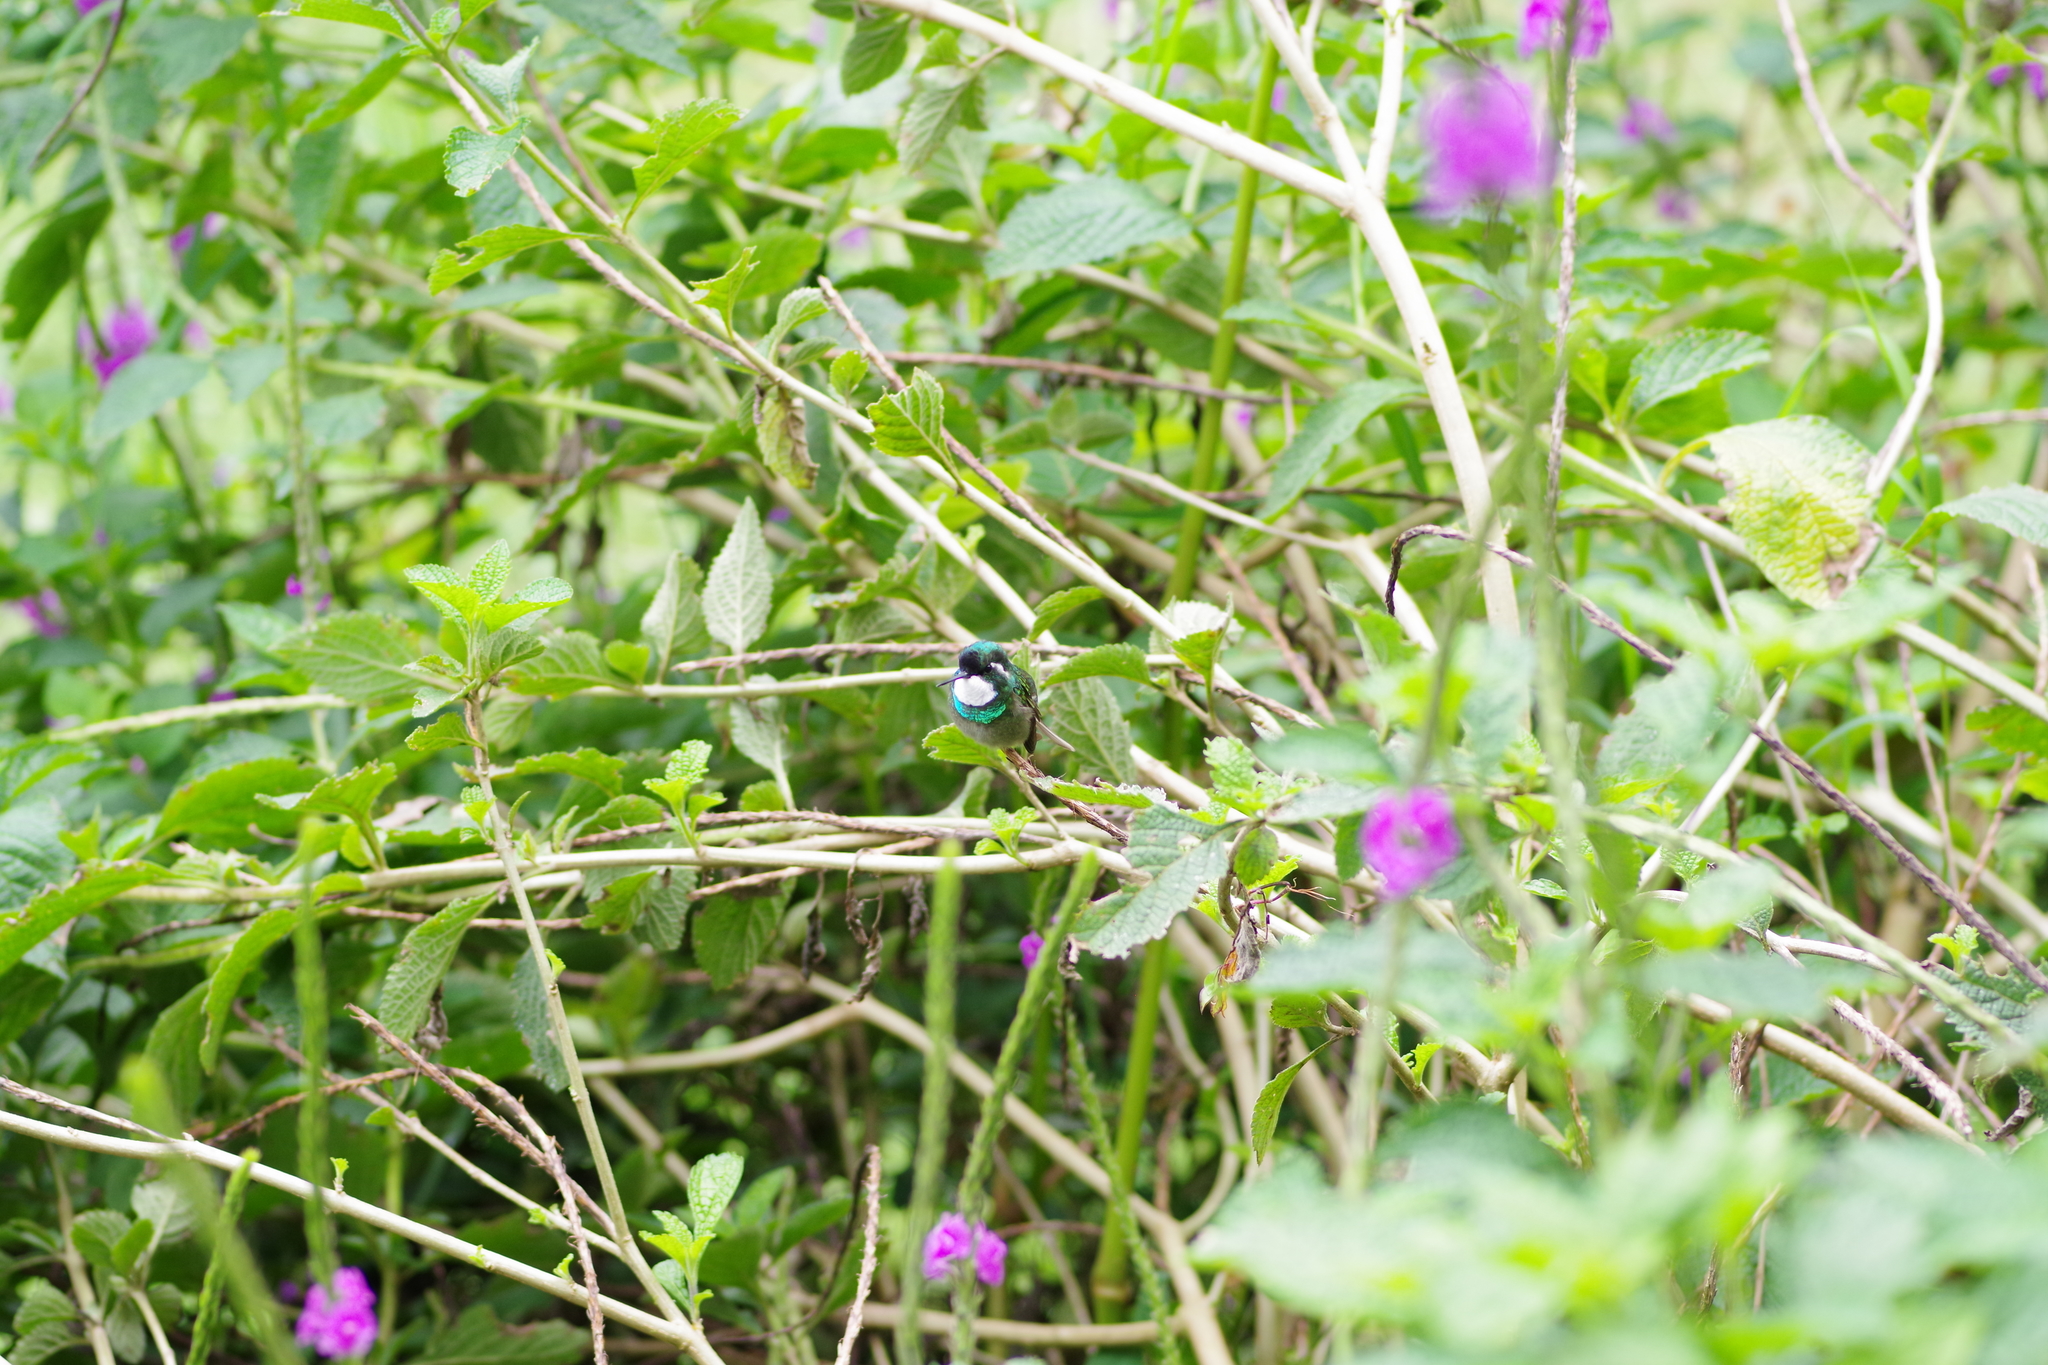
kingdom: Animalia
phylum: Chordata
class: Aves
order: Apodiformes
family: Trochilidae
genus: Lampornis
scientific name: Lampornis castaneoventris
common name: White-throated mountain-gem
